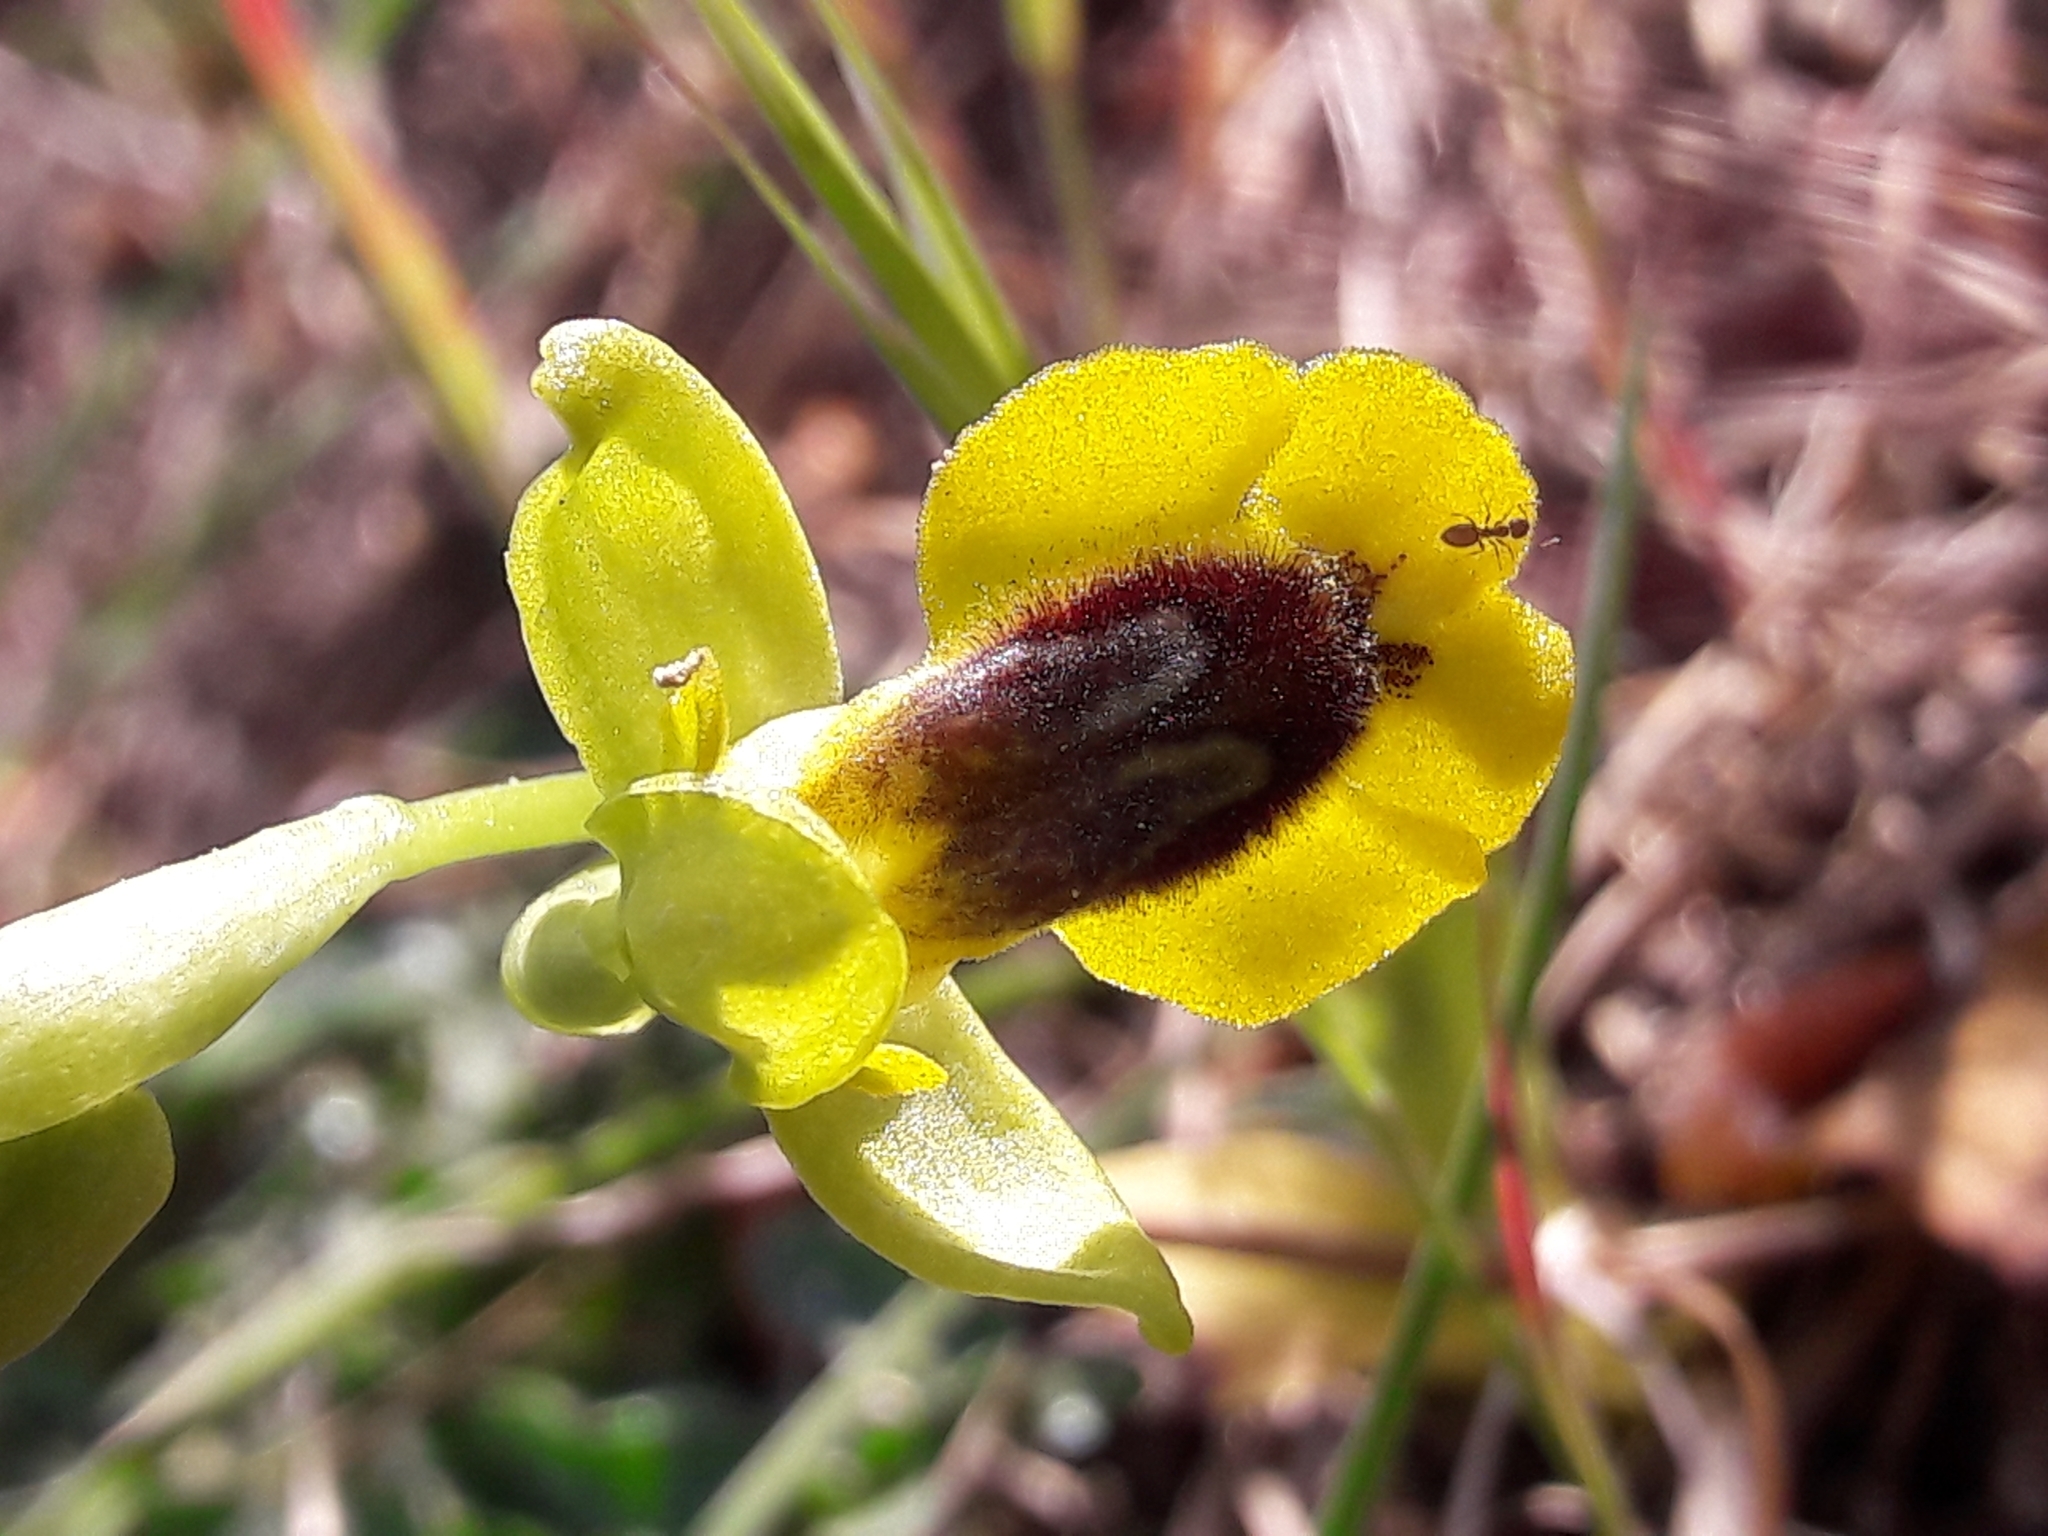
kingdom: Plantae
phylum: Tracheophyta
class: Liliopsida
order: Asparagales
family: Orchidaceae
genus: Ophrys
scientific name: Ophrys lutea
